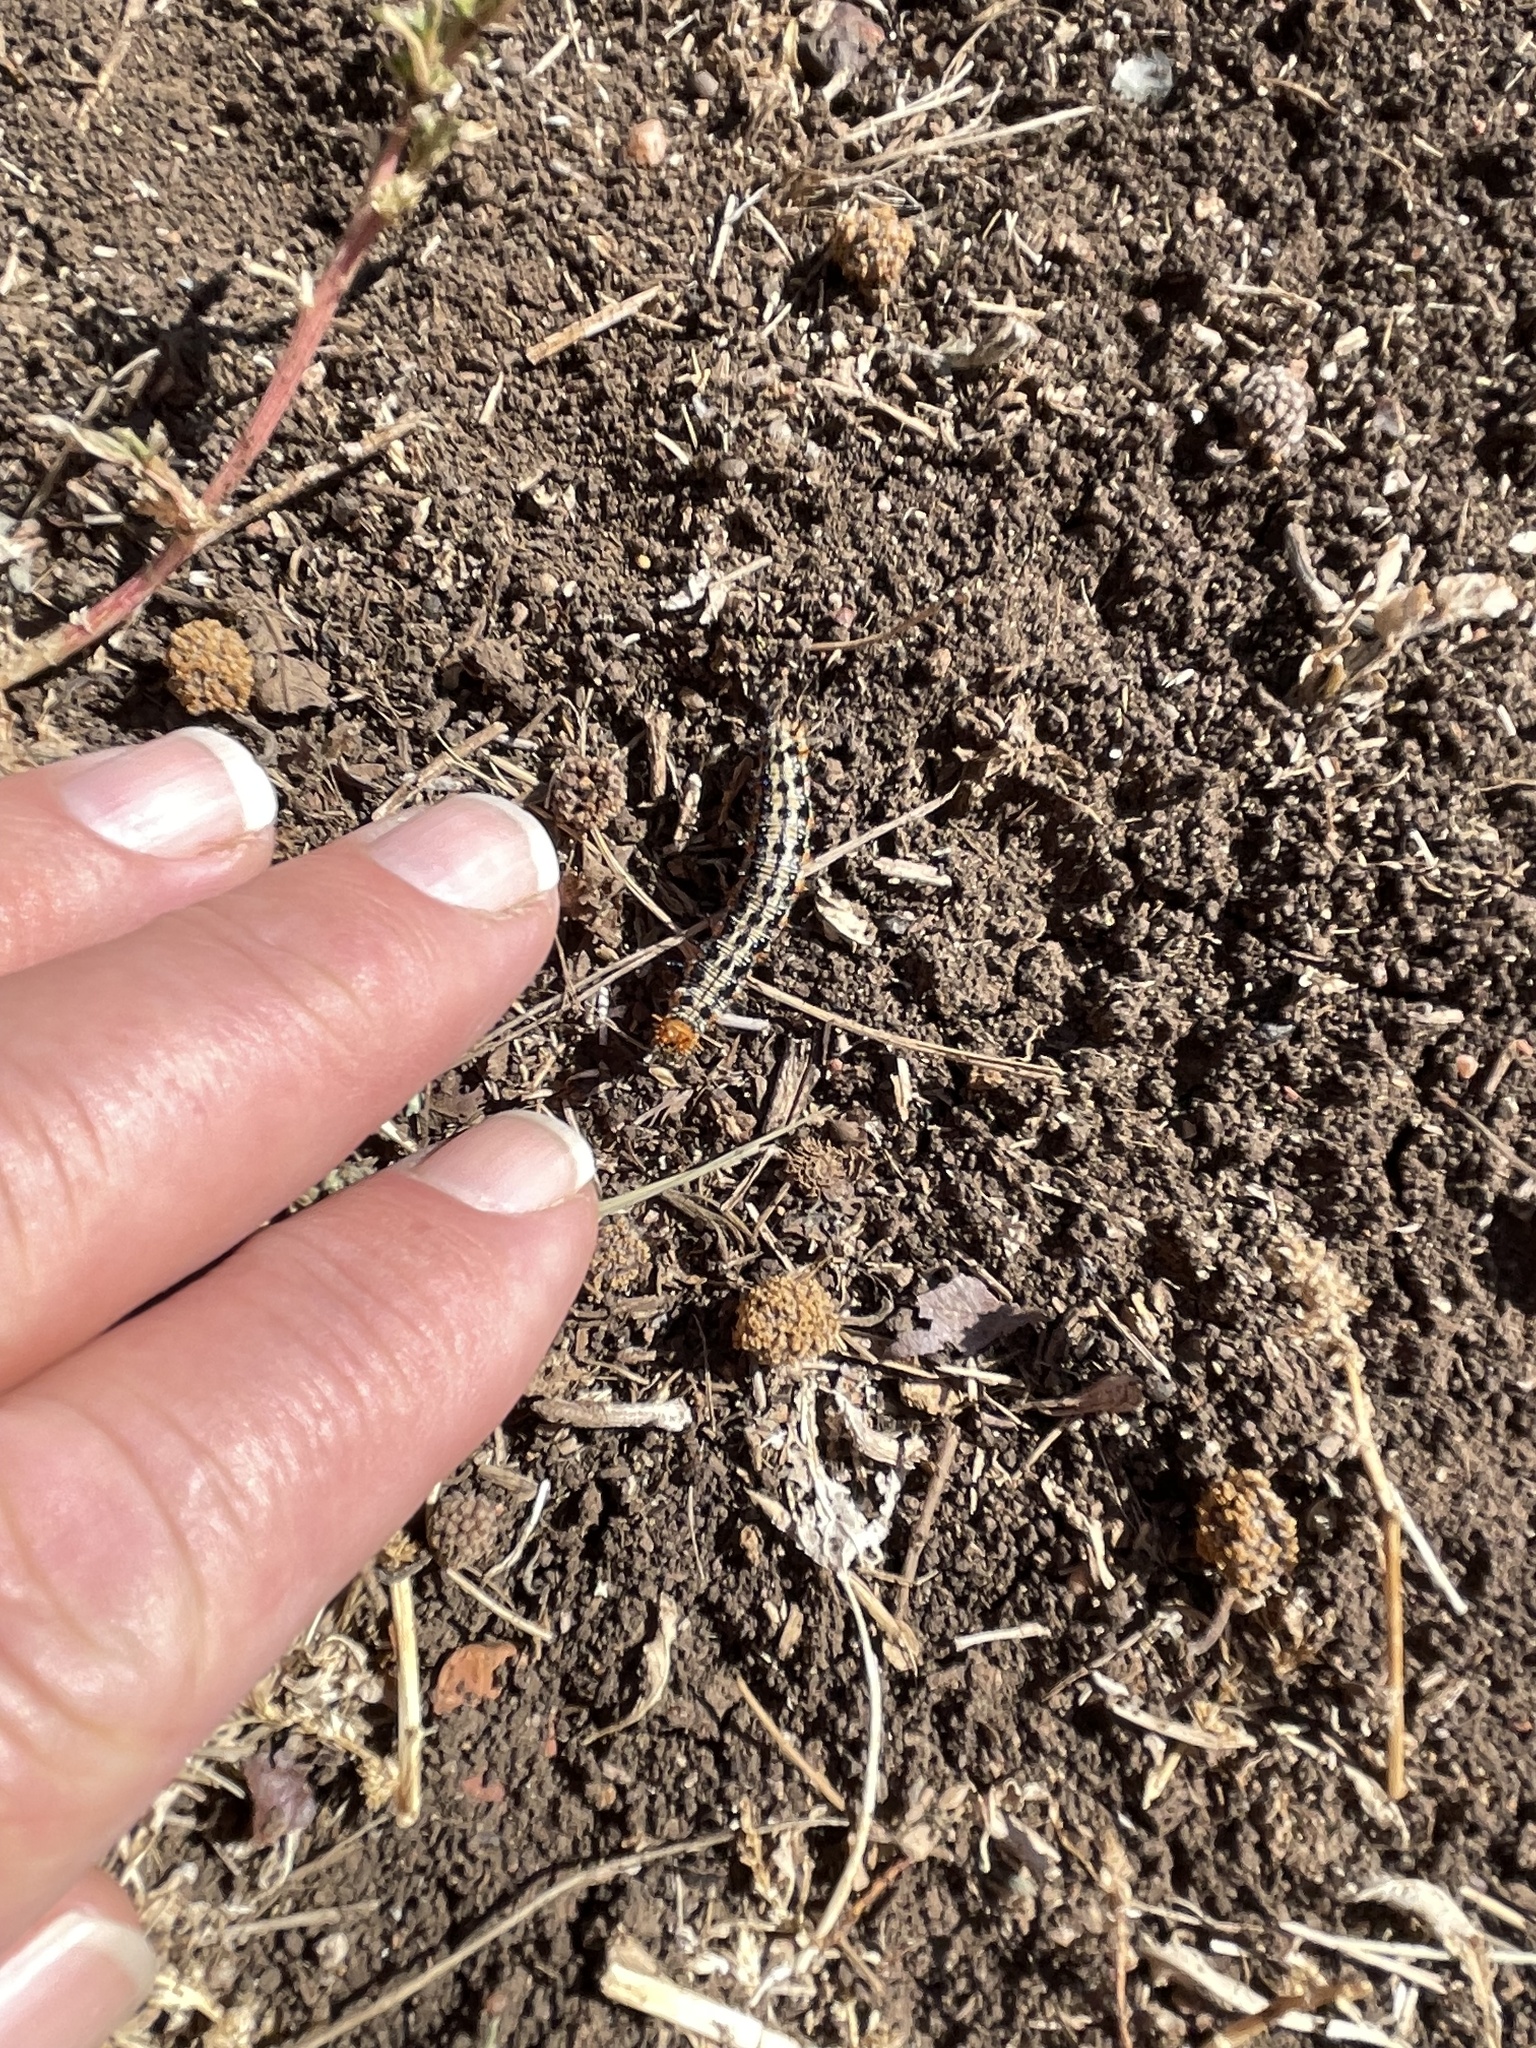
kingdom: Animalia
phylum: Arthropoda
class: Insecta
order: Lepidoptera
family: Nymphalidae
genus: Junonia
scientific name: Junonia coenia
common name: Common buckeye
